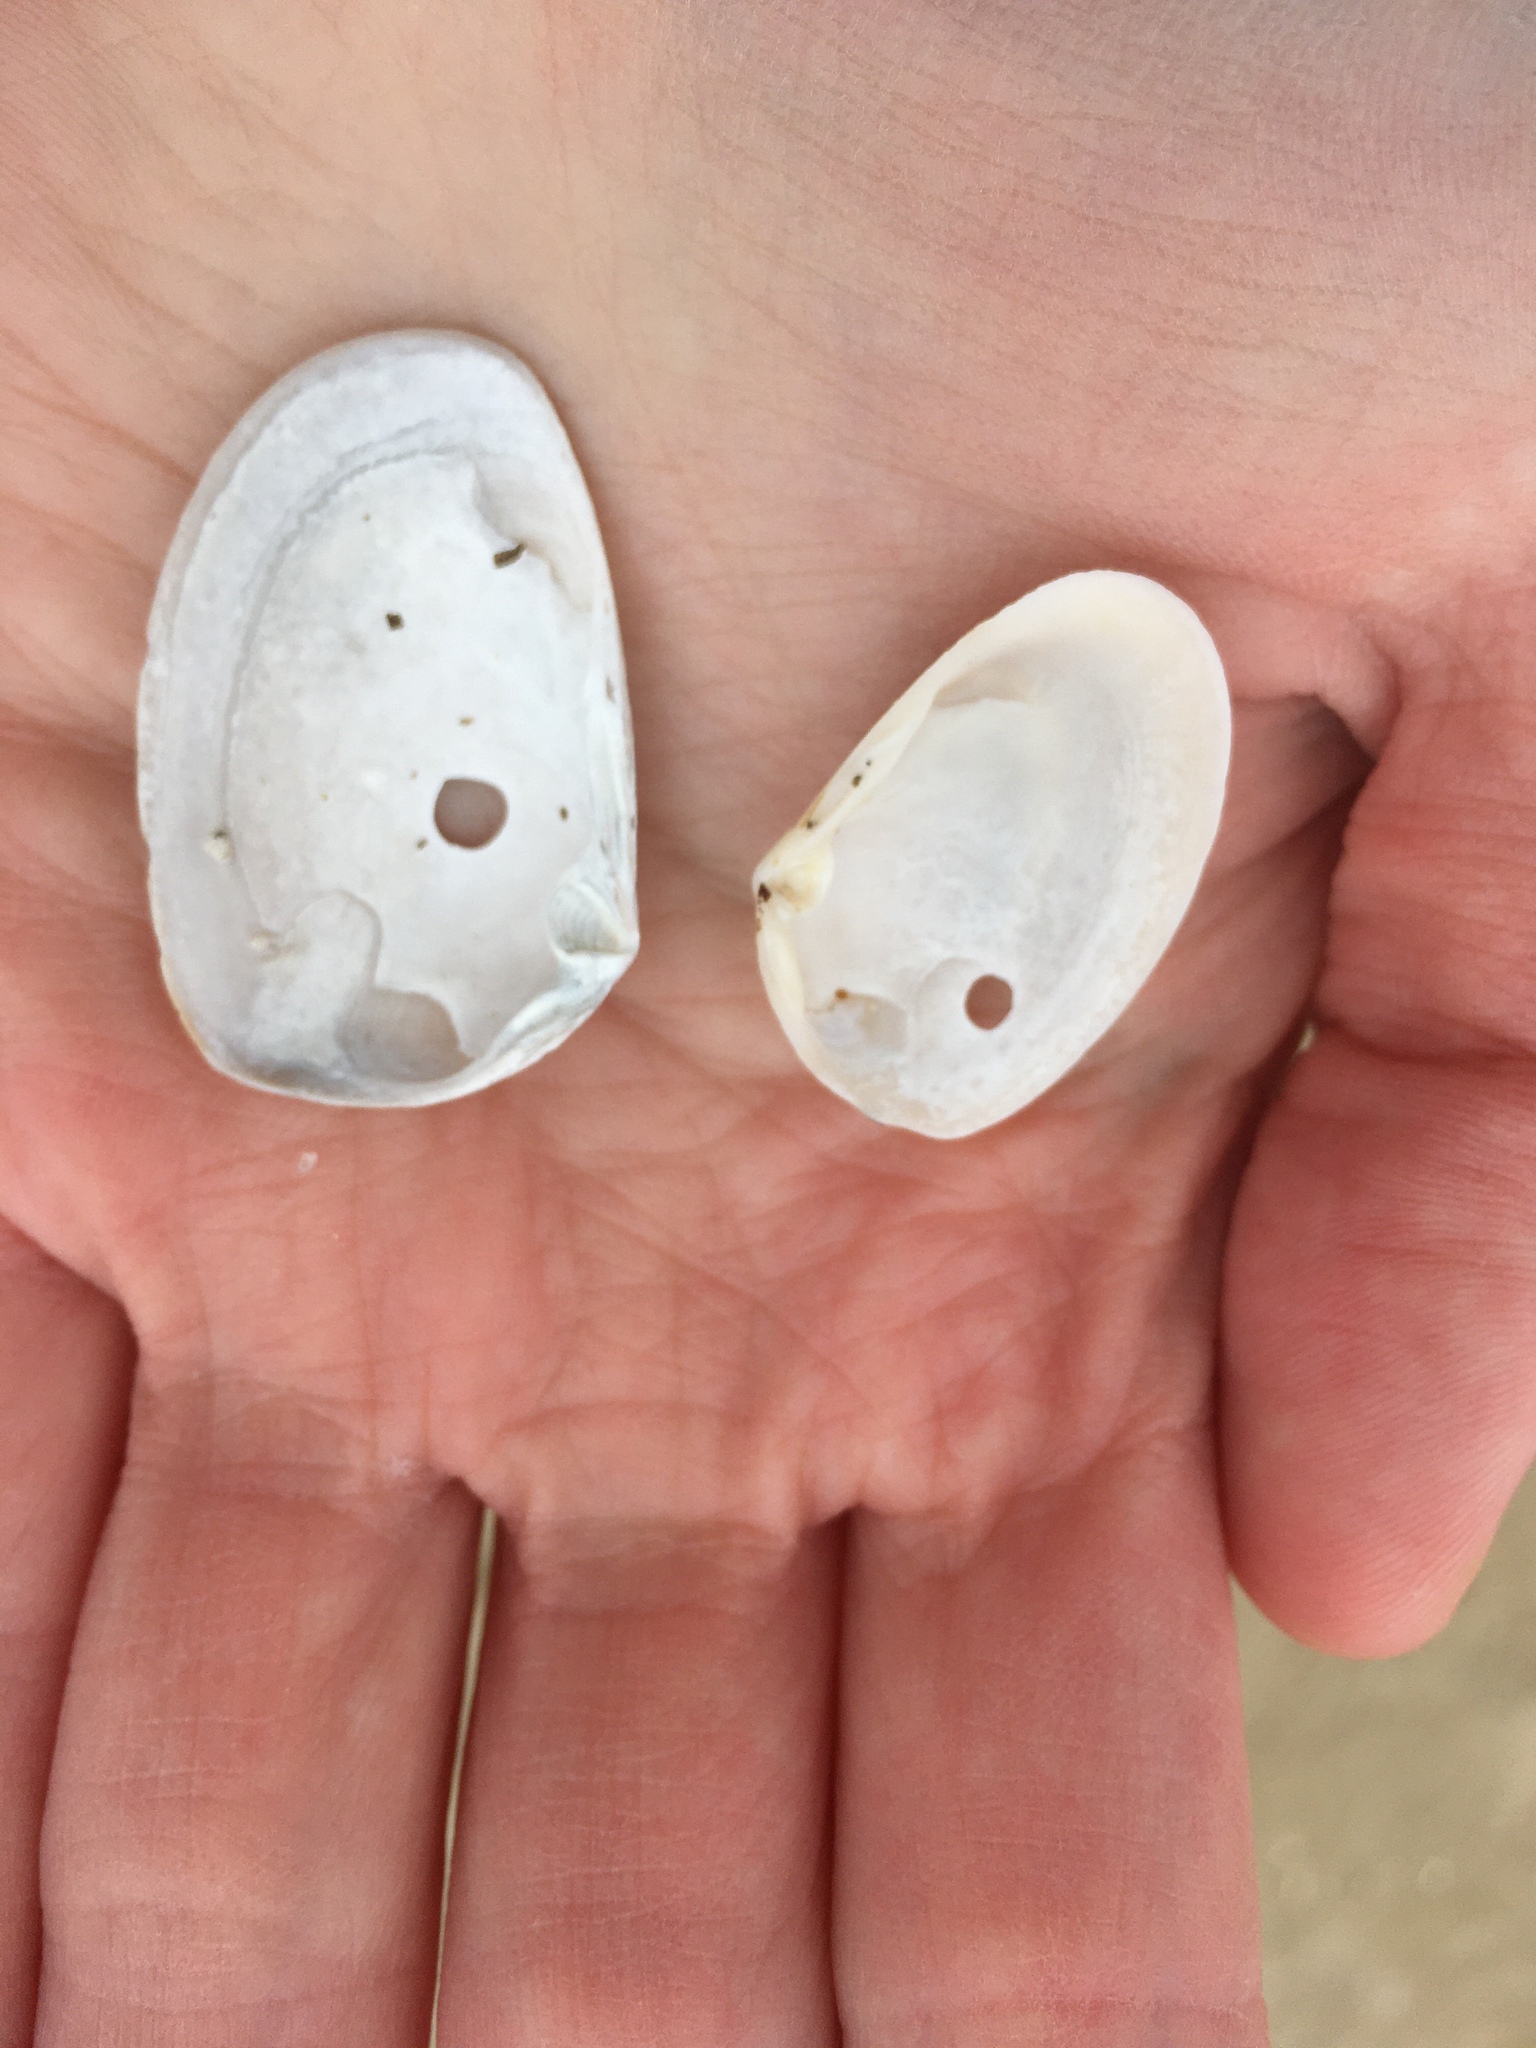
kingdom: Animalia
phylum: Mollusca
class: Bivalvia
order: Venerida
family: Mesodesmatidae
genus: Mesodesma
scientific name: Mesodesma arctatum
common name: Compressed clam
